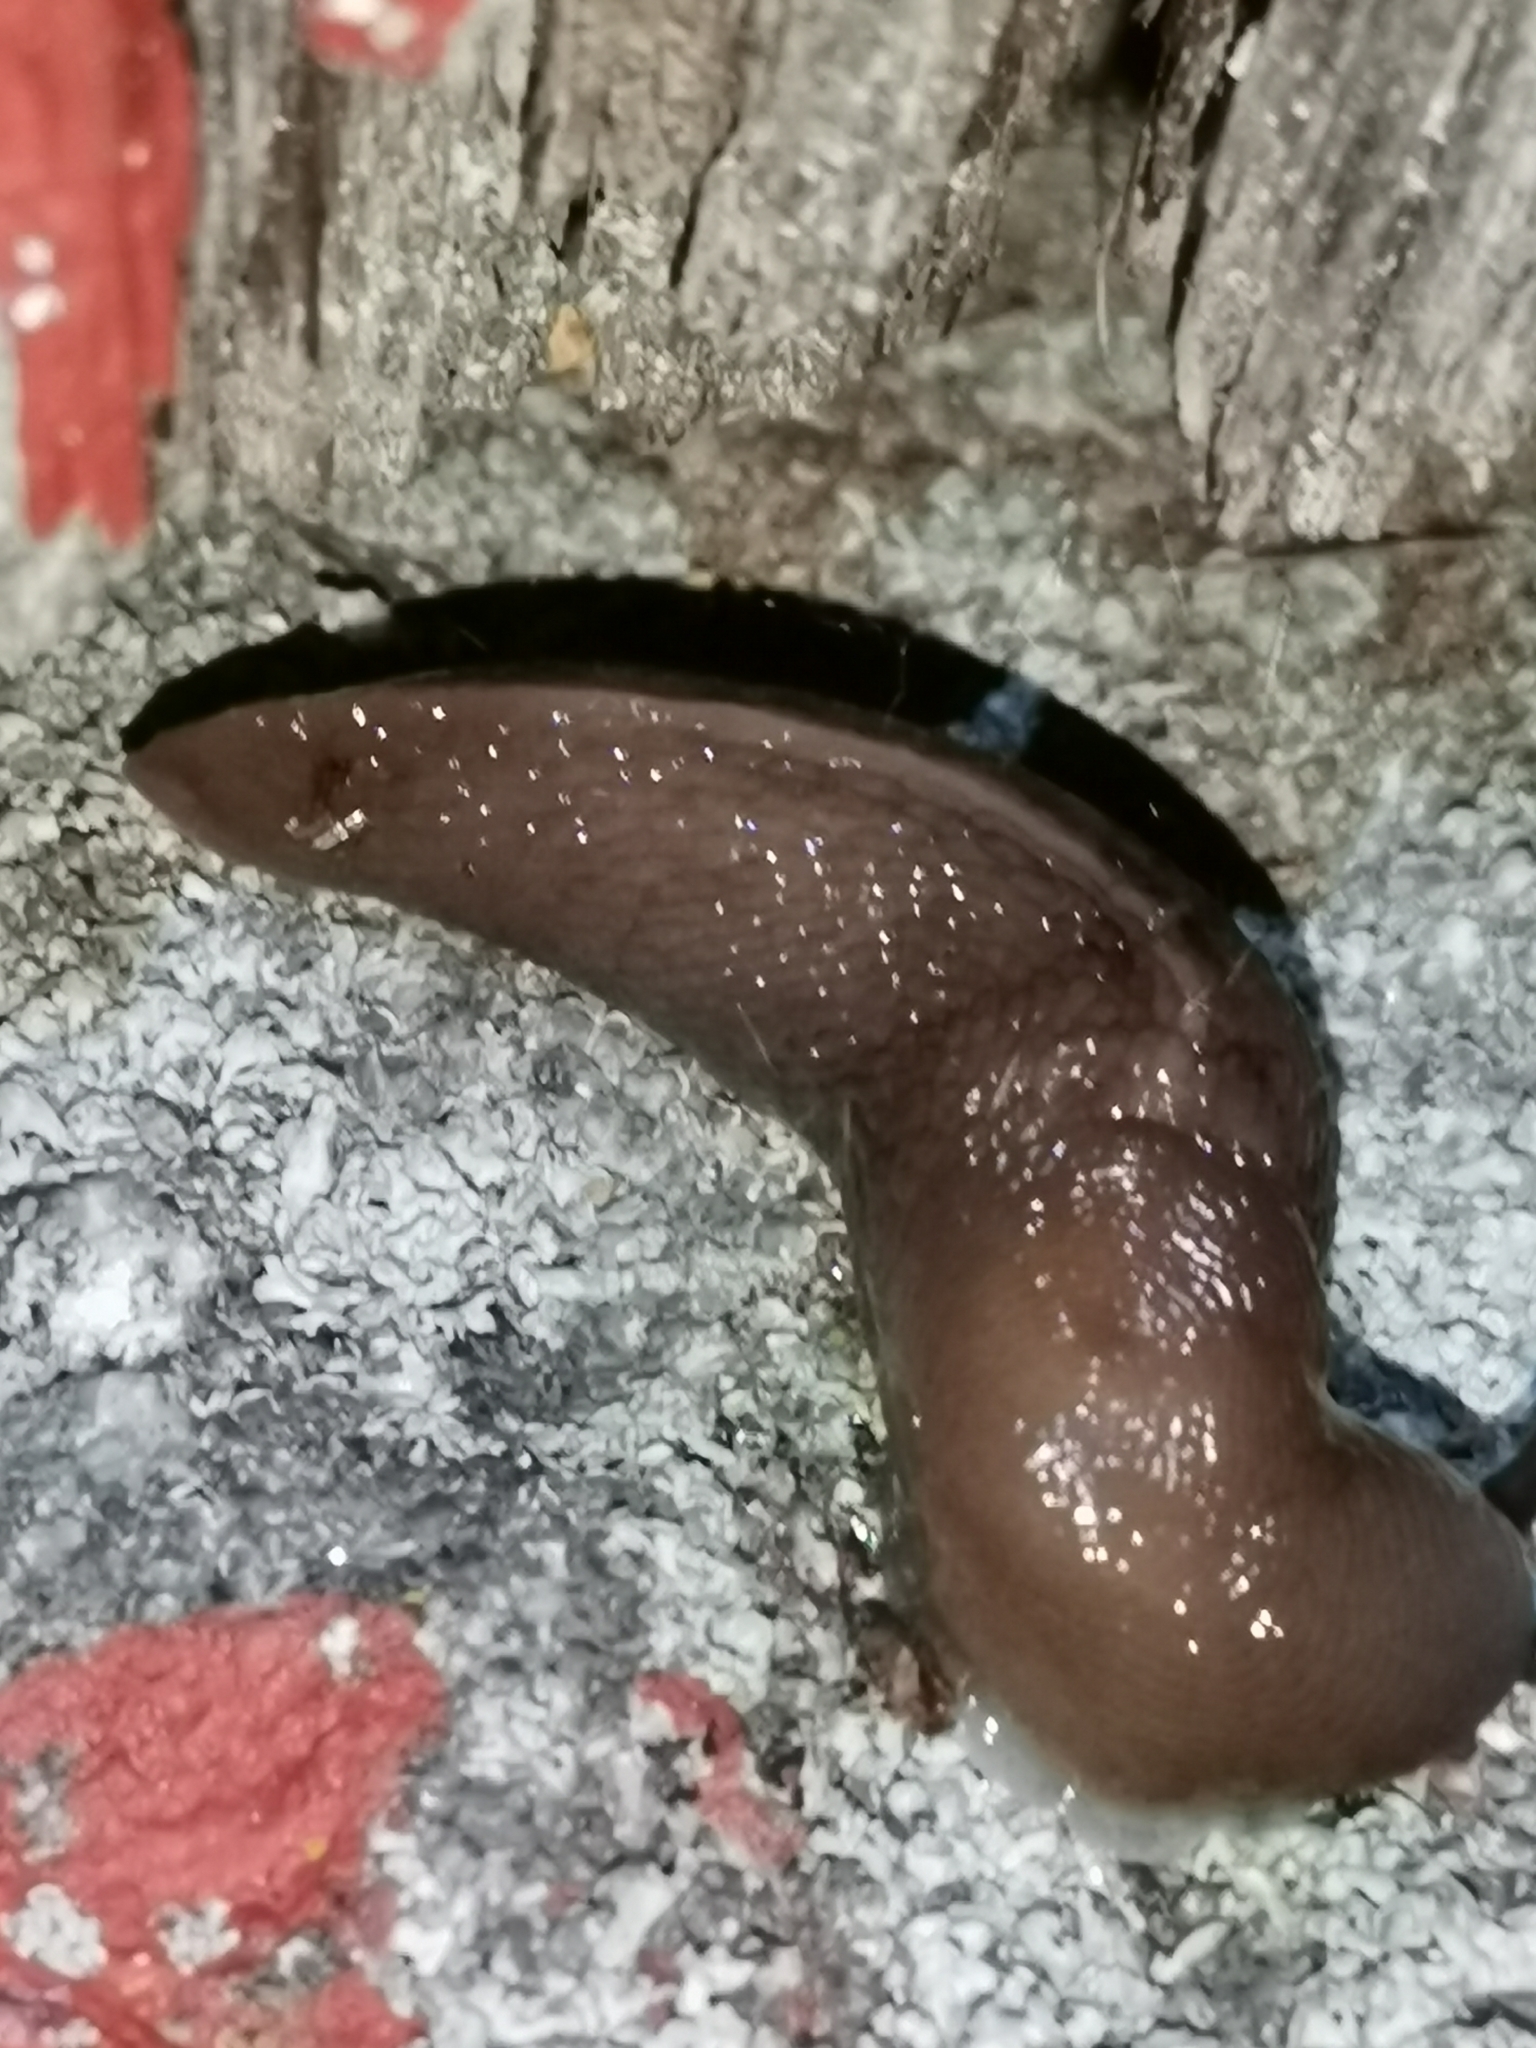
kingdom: Animalia
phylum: Mollusca
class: Gastropoda
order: Stylommatophora
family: Limacidae
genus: Limax
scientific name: Limax cinereoniger
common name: Ash-black slug
